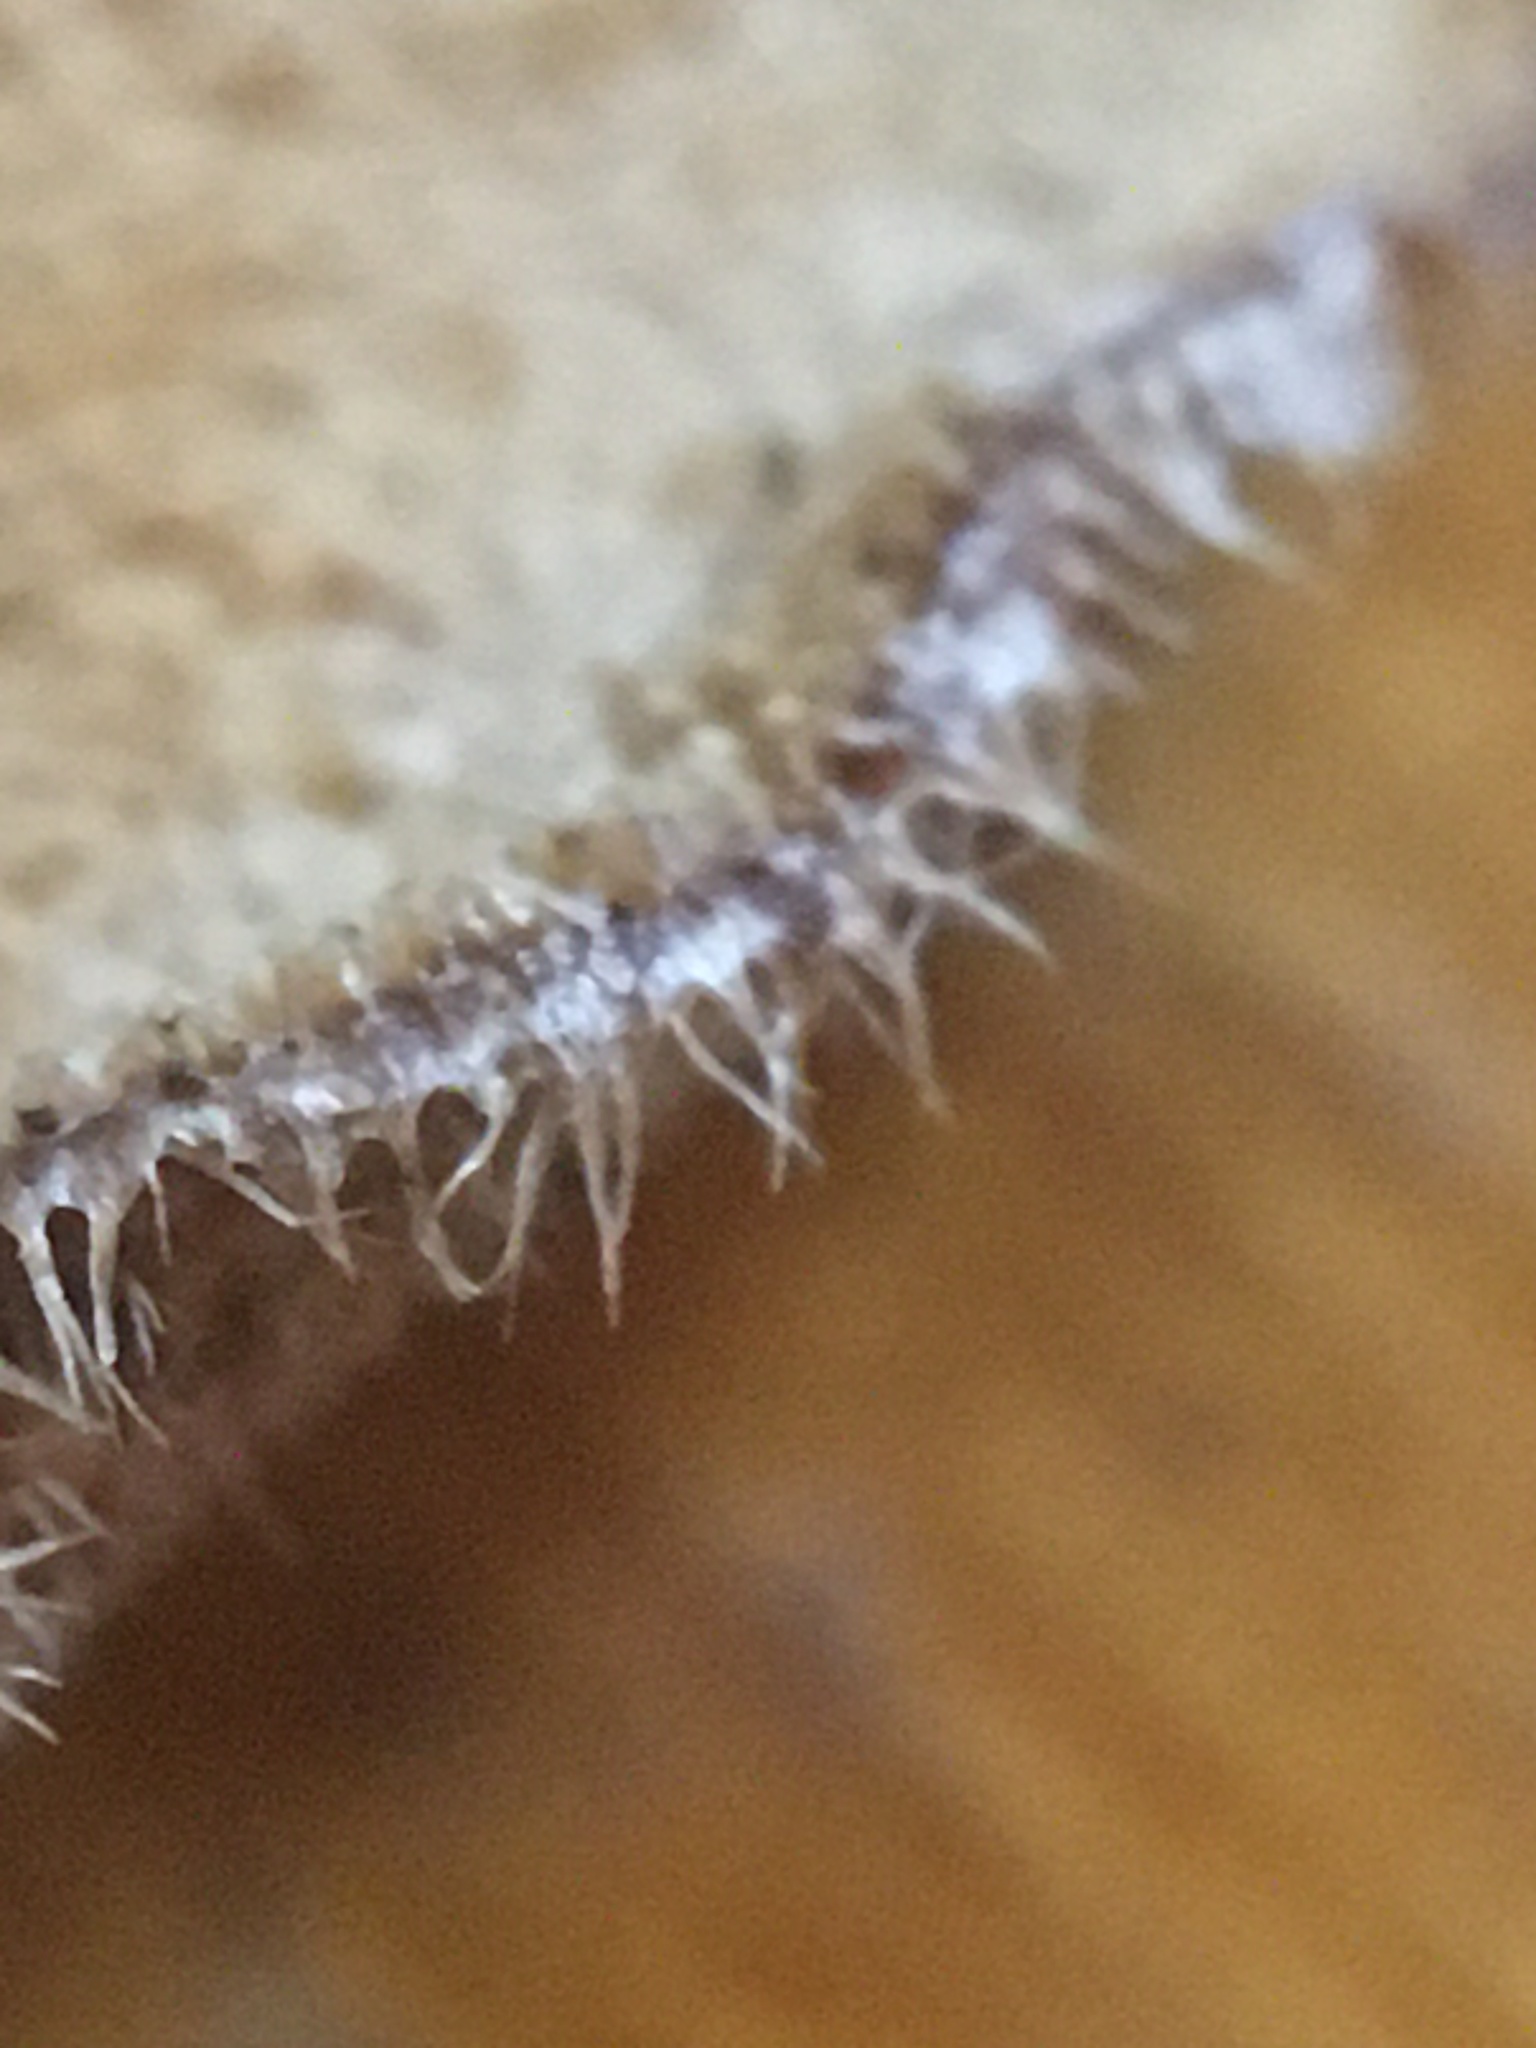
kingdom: Fungi
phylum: Basidiomycota
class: Agaricomycetes
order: Polyporales
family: Polyporaceae
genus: Lentinus
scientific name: Lentinus arcularius
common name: Spring polypore
